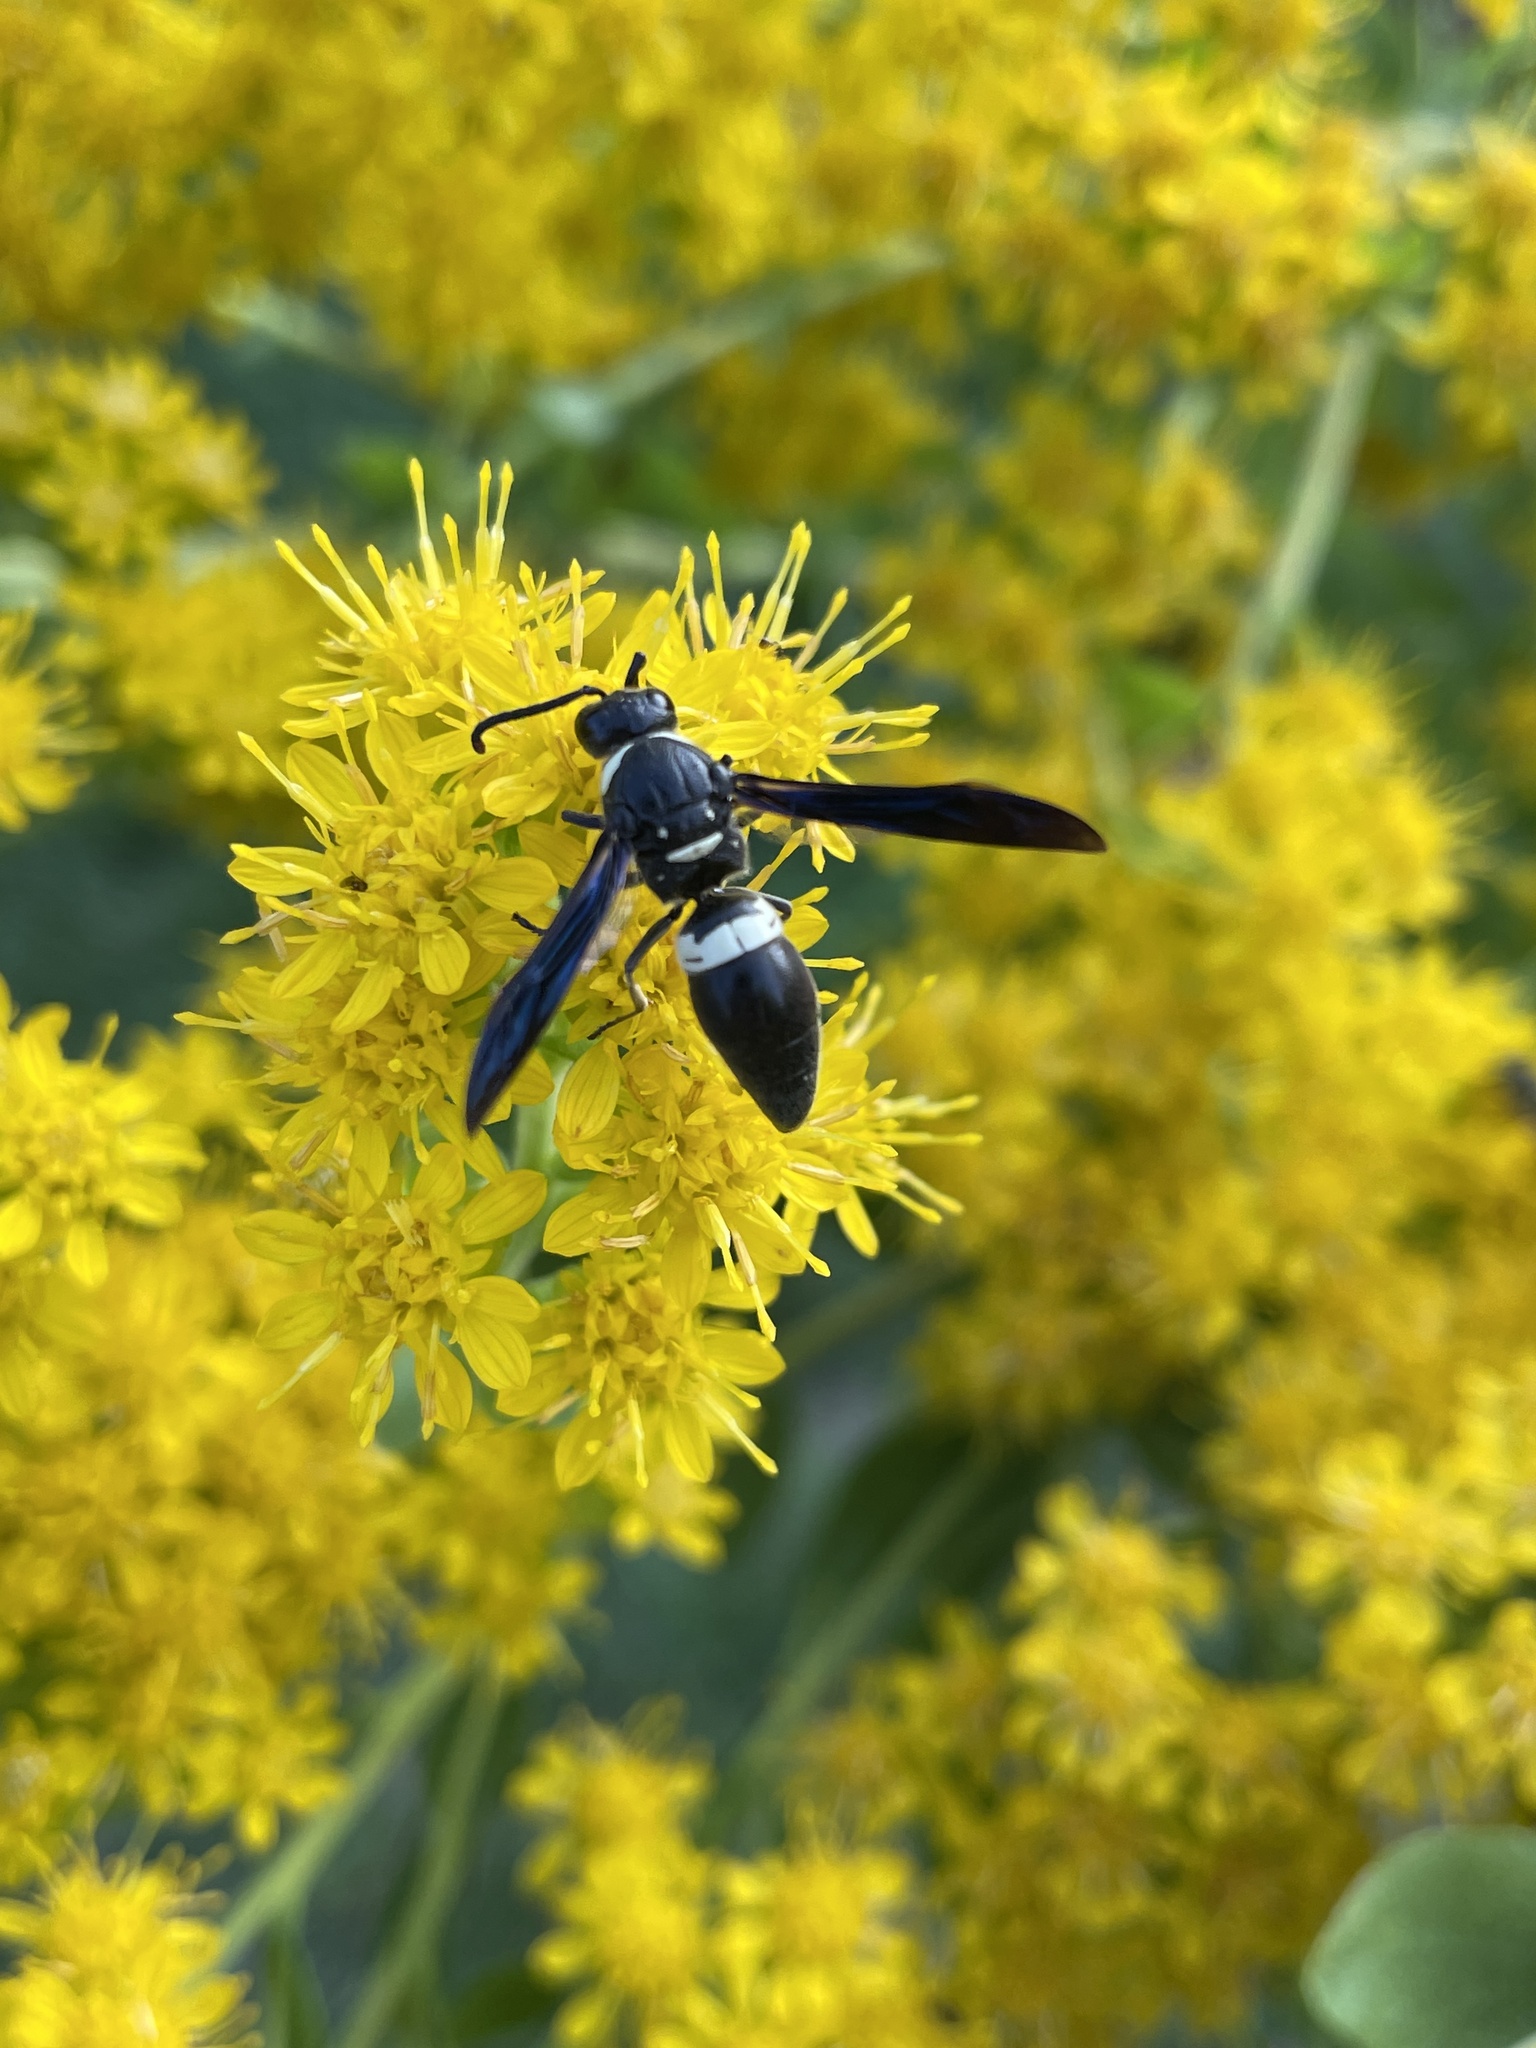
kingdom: Animalia
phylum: Arthropoda
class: Insecta
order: Hymenoptera
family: Eumenidae
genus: Monobia
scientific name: Monobia quadridens
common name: Four-toothed mason wasp
